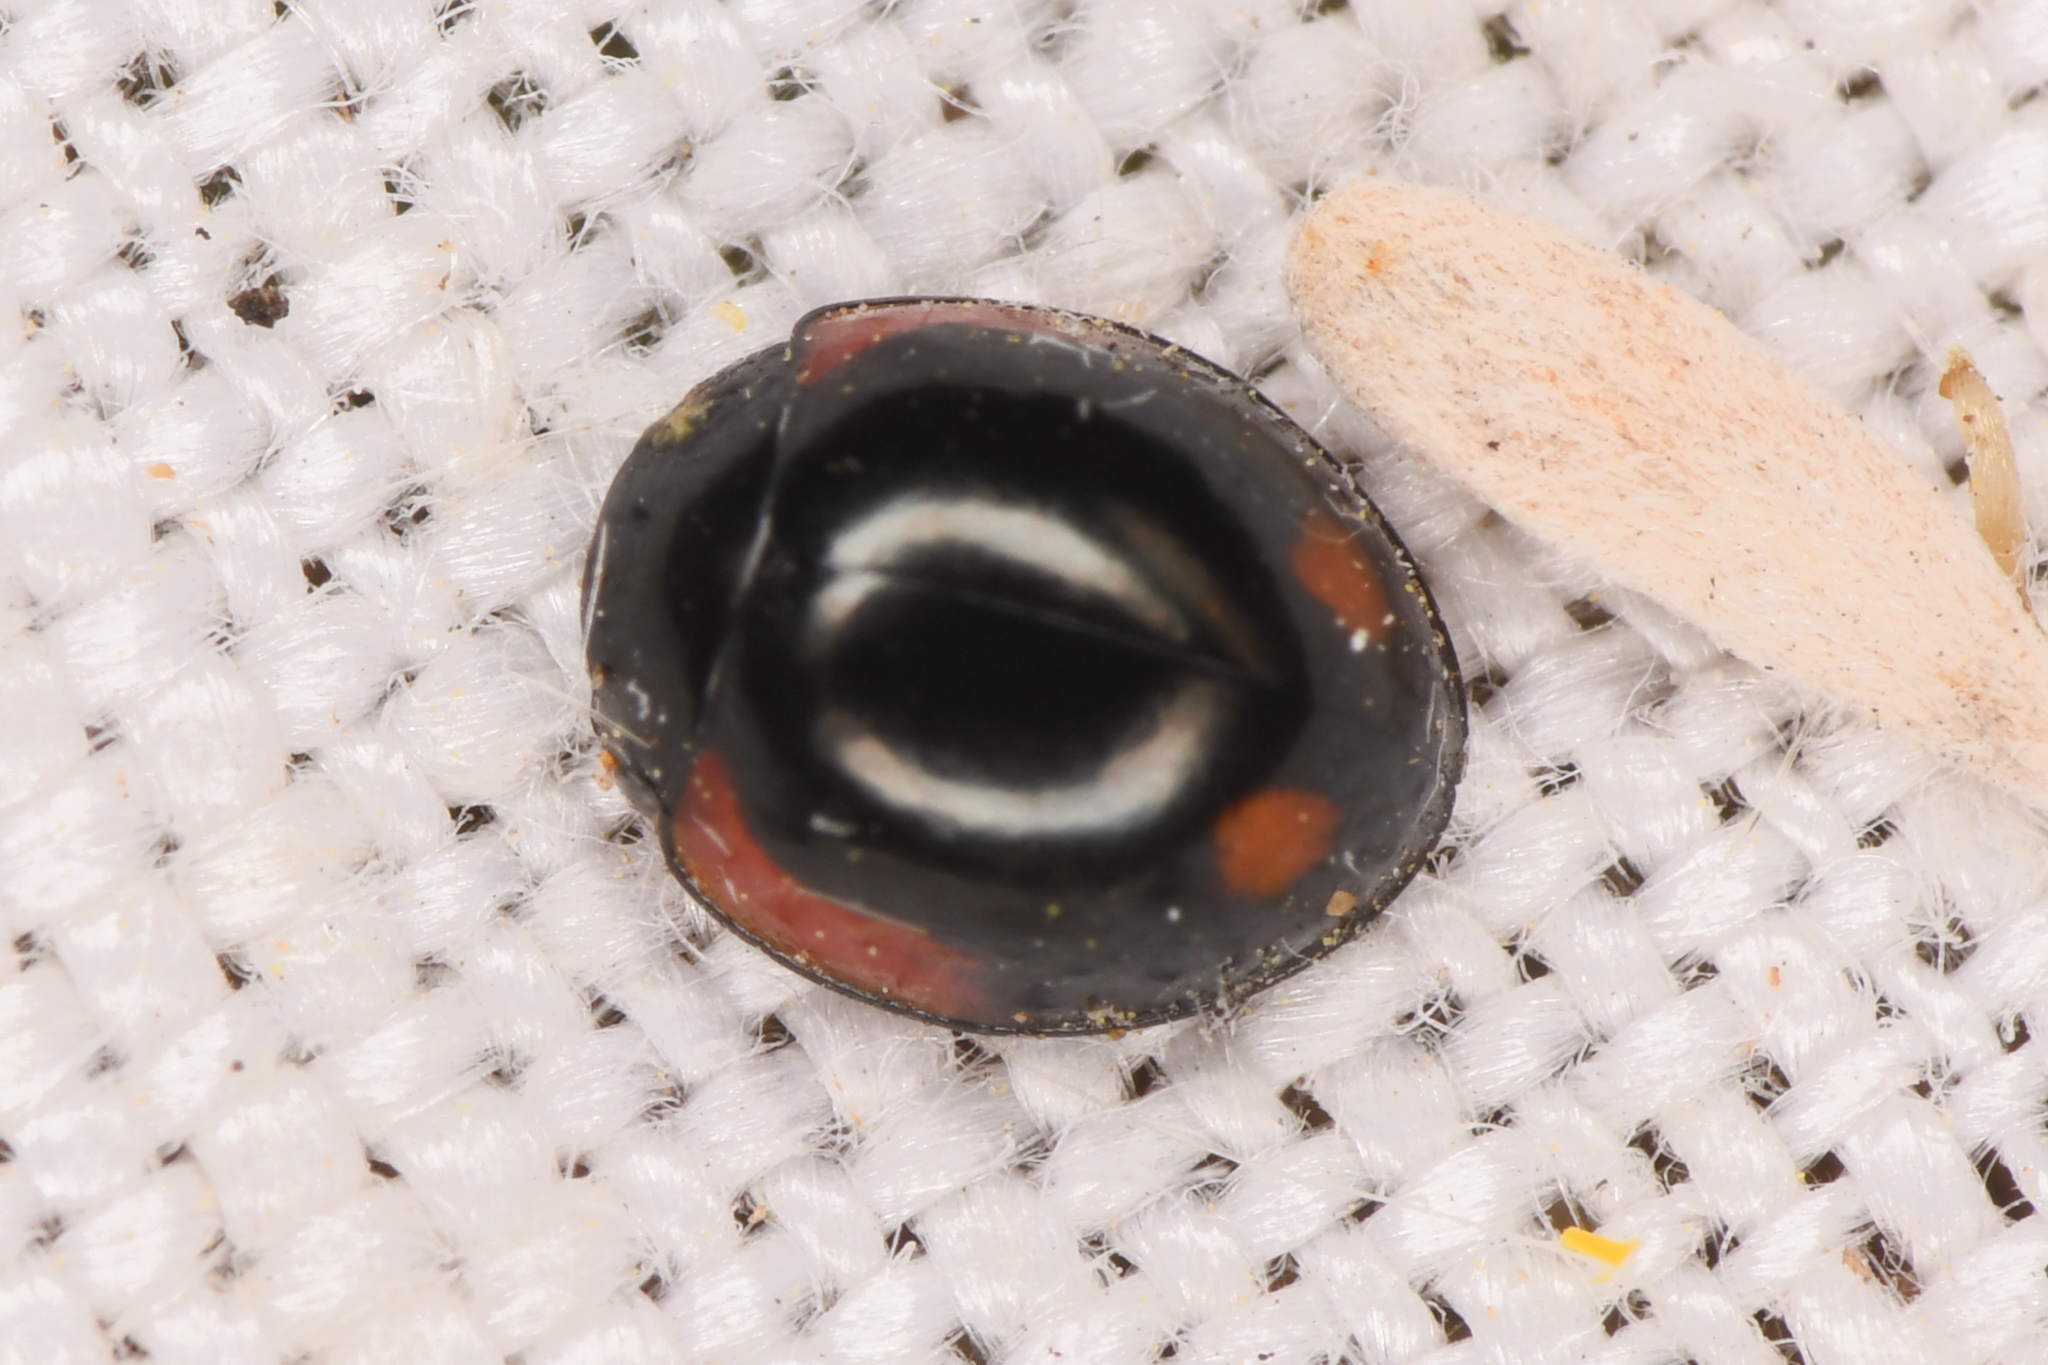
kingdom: Animalia
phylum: Arthropoda
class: Insecta
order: Coleoptera
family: Coccinellidae
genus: Brumoides
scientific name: Brumoides histrio
